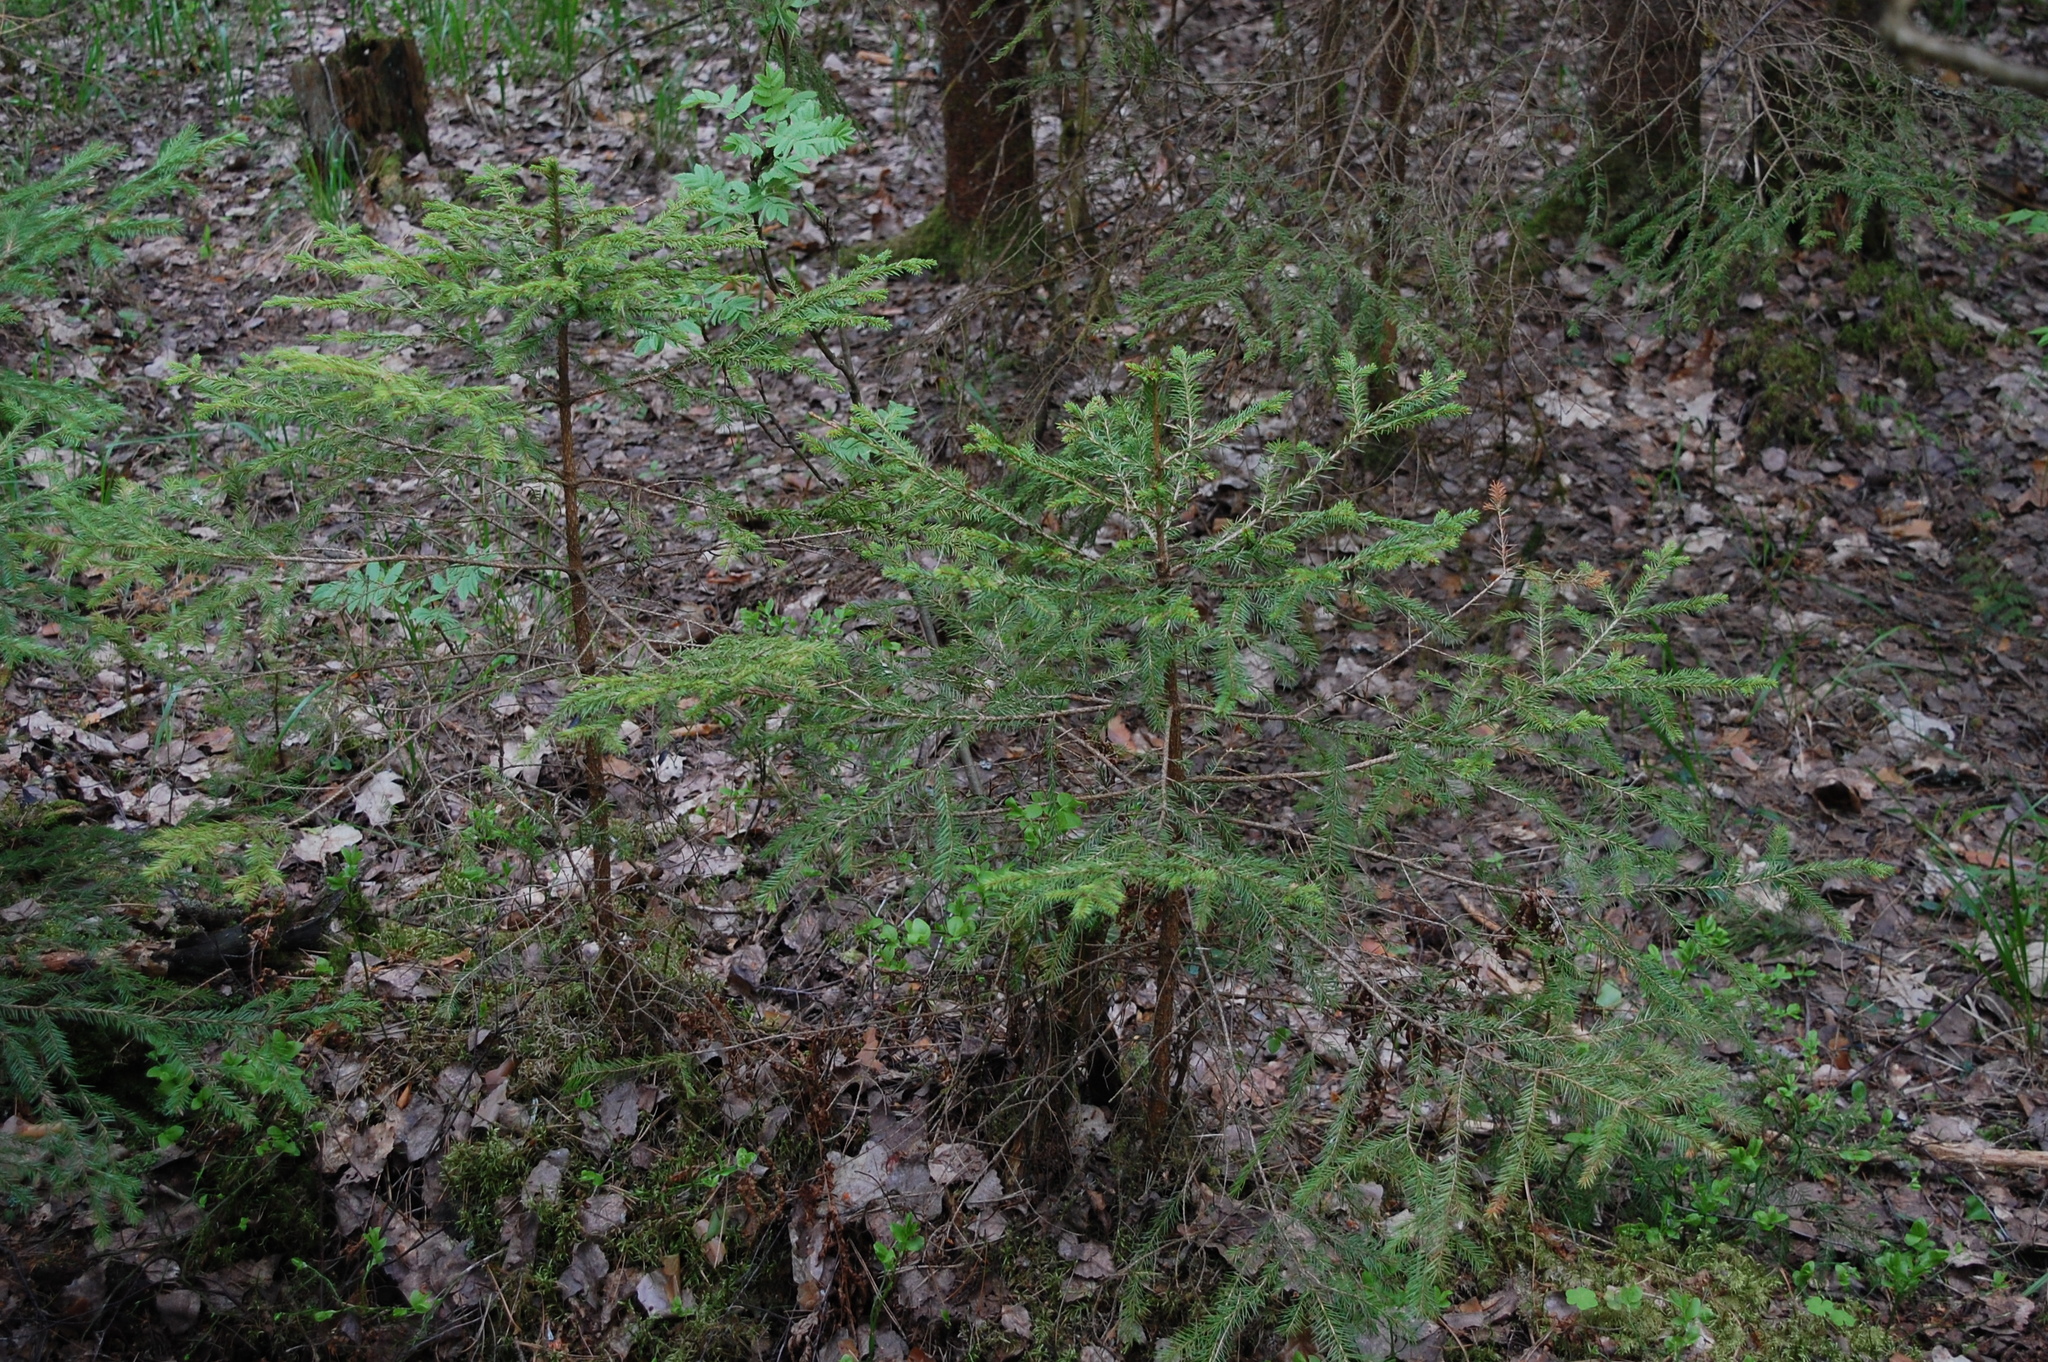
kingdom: Plantae
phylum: Tracheophyta
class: Pinopsida
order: Pinales
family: Pinaceae
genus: Picea
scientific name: Picea abies
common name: Norway spruce
